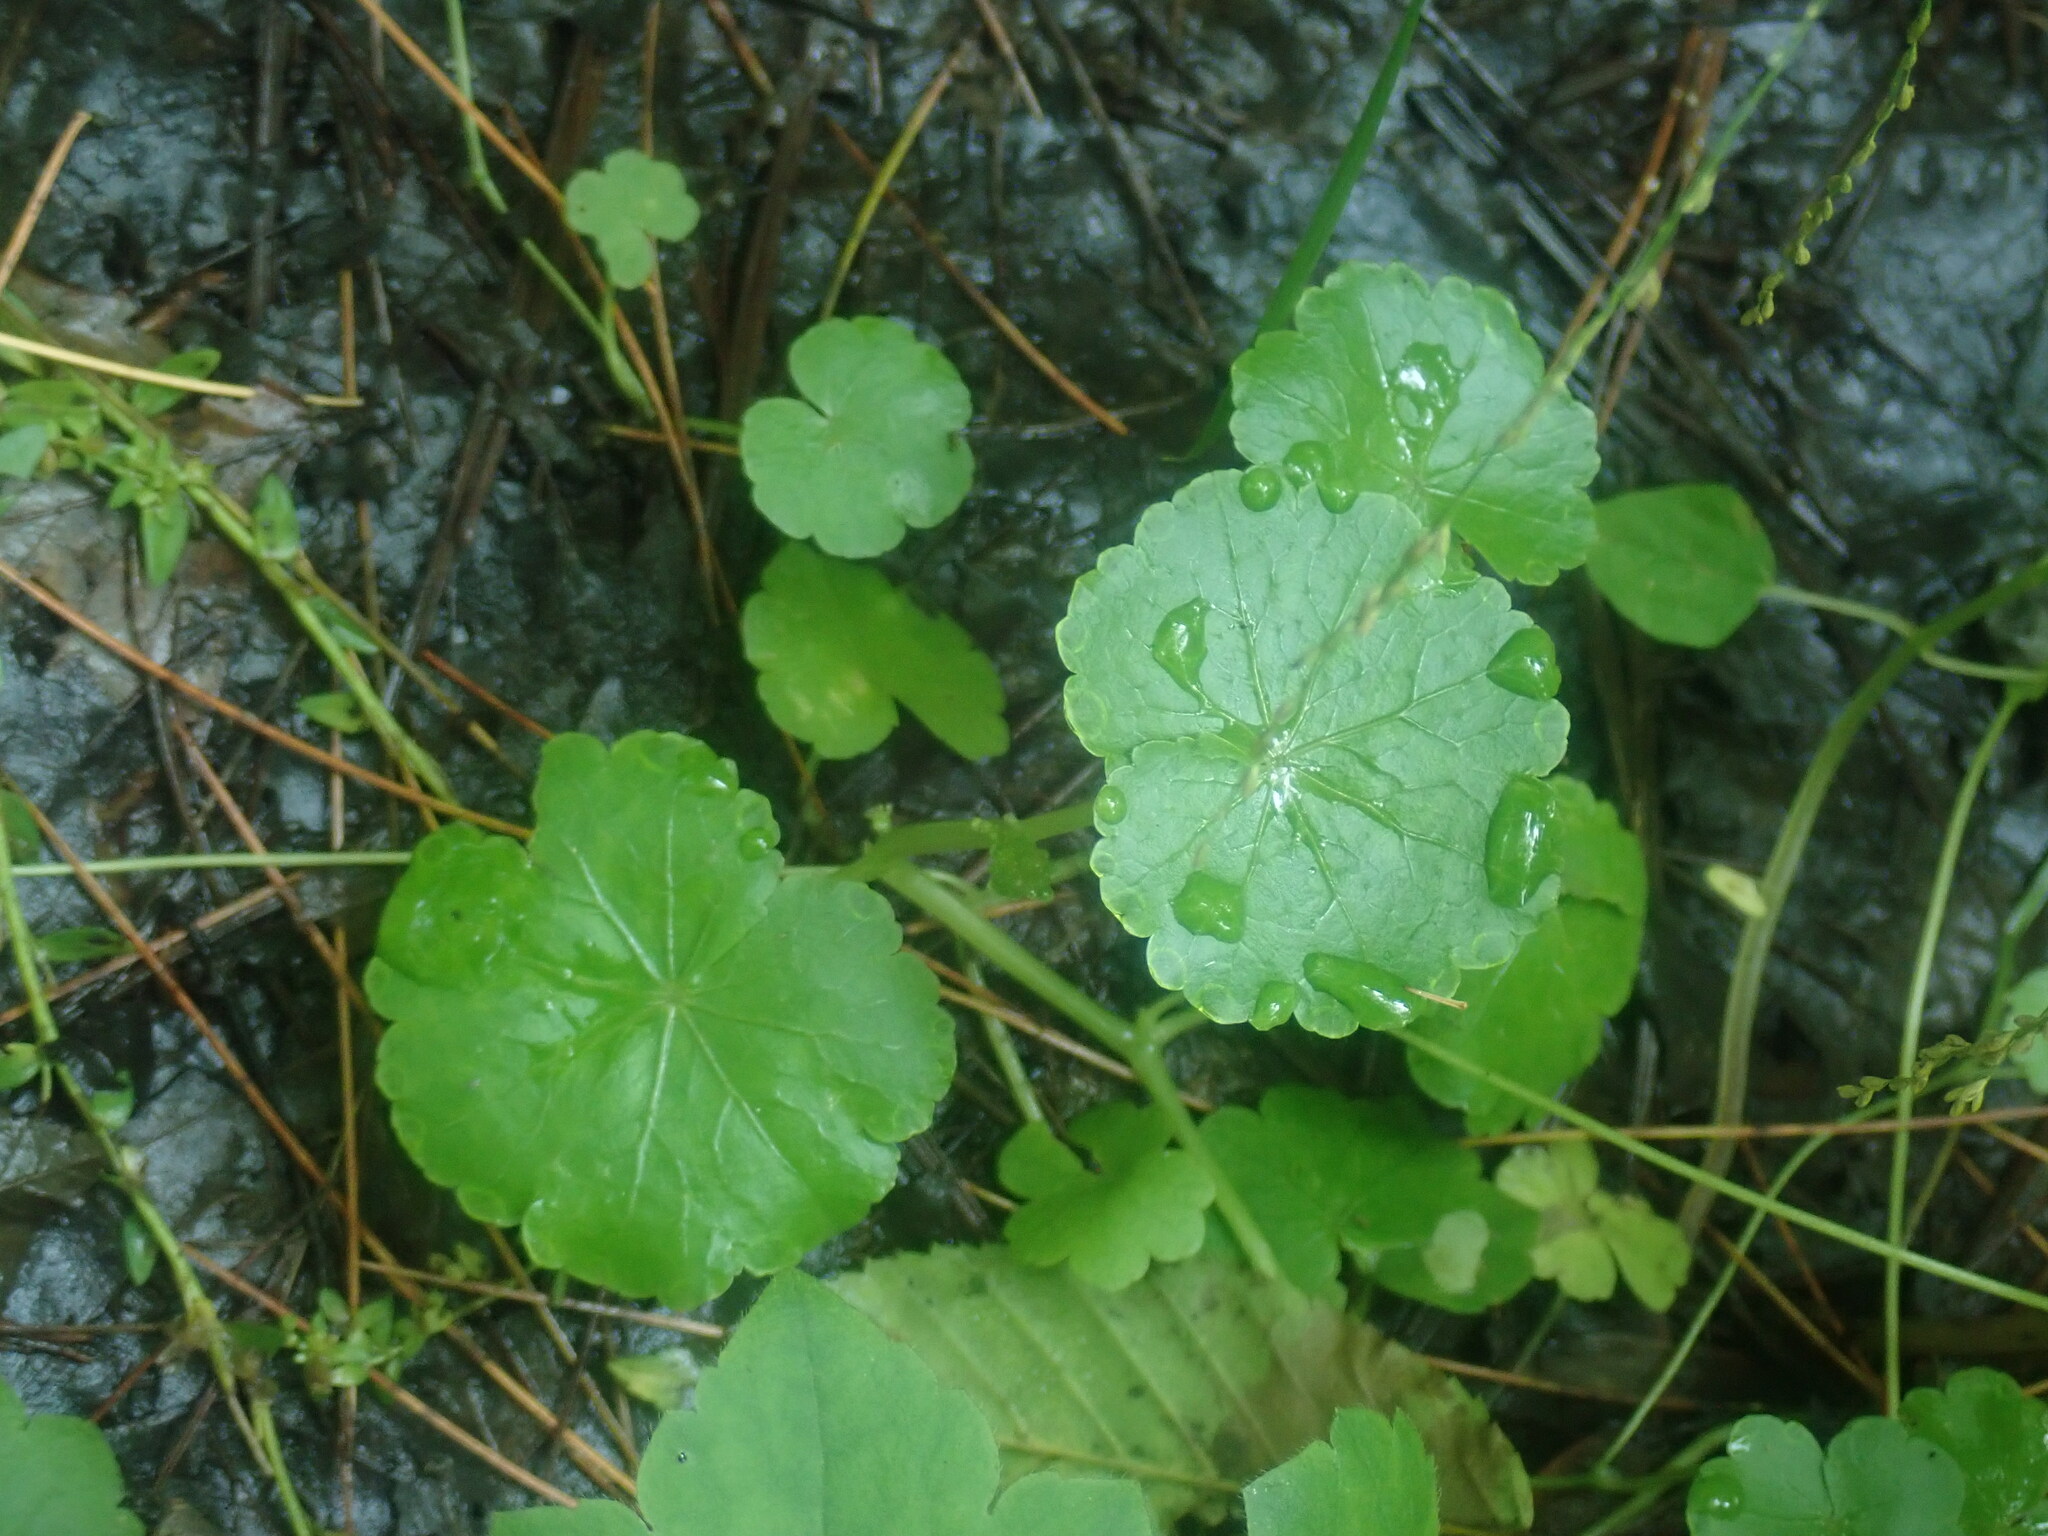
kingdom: Plantae
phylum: Tracheophyta
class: Magnoliopsida
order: Apiales
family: Araliaceae
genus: Hydrocotyle
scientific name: Hydrocotyle americana
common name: American water-pennywort
